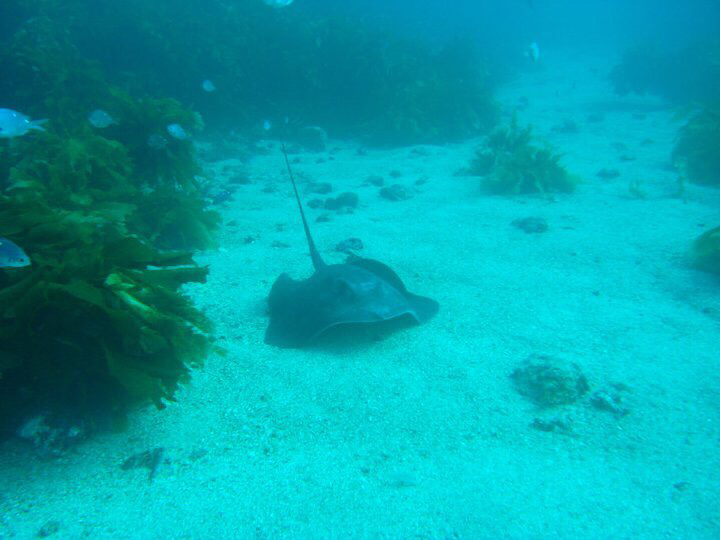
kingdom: Animalia
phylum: Chordata
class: Elasmobranchii
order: Myliobatiformes
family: Dasyatidae
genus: Bathytoshia
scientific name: Bathytoshia lata
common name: Brown stingray
